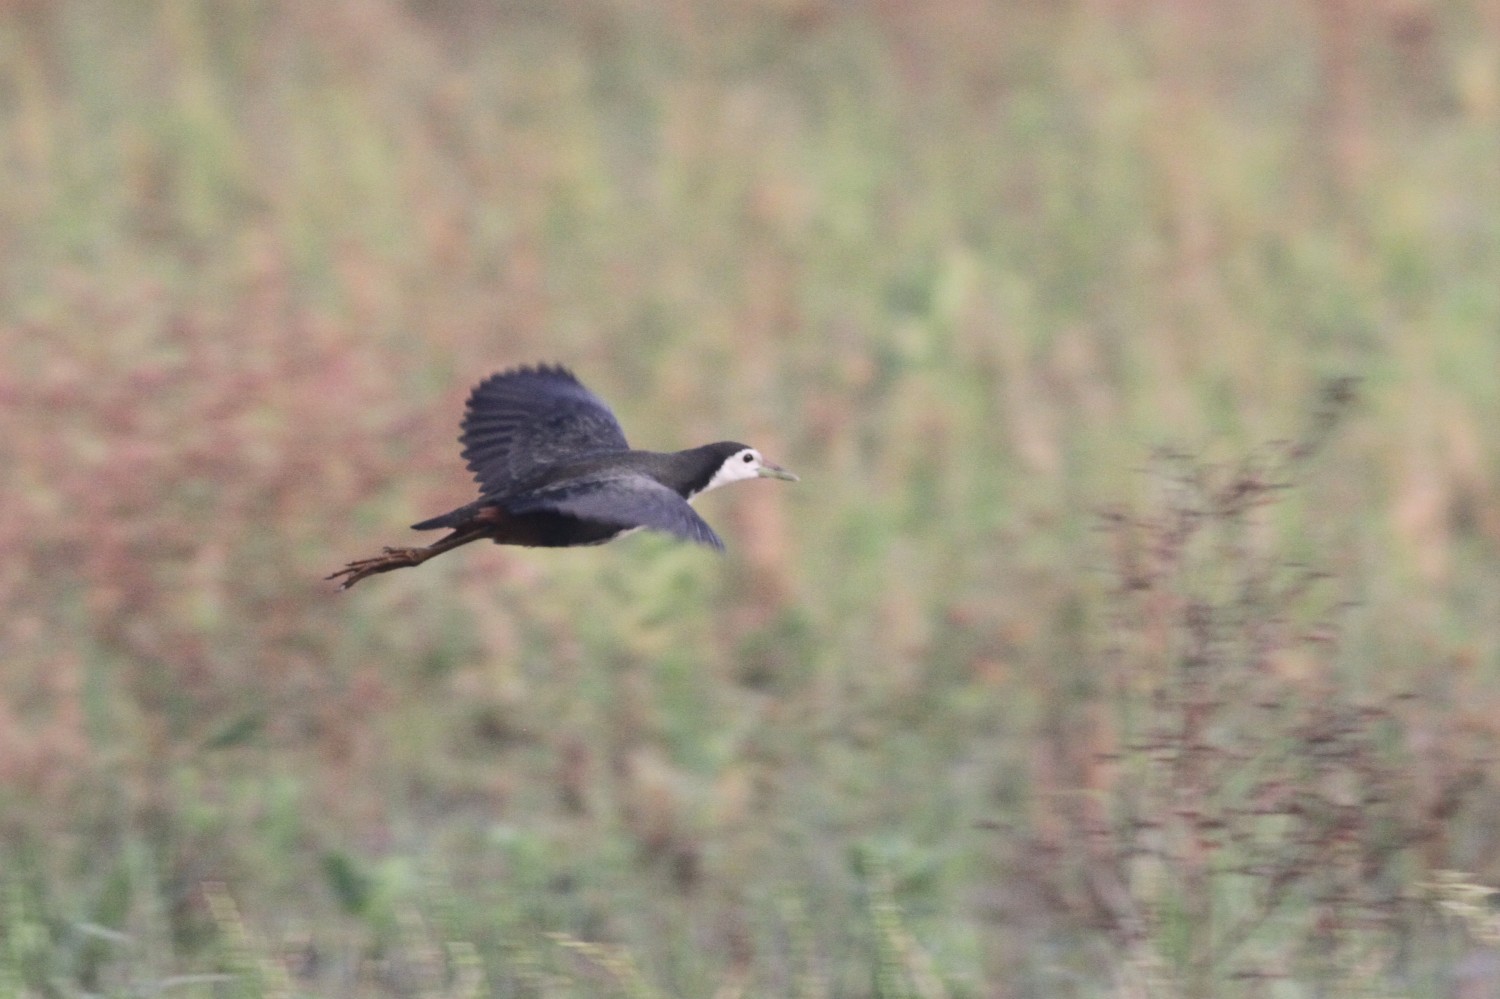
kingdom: Animalia
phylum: Chordata
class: Aves
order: Gruiformes
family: Rallidae
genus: Amaurornis
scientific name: Amaurornis phoenicurus
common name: White-breasted waterhen
